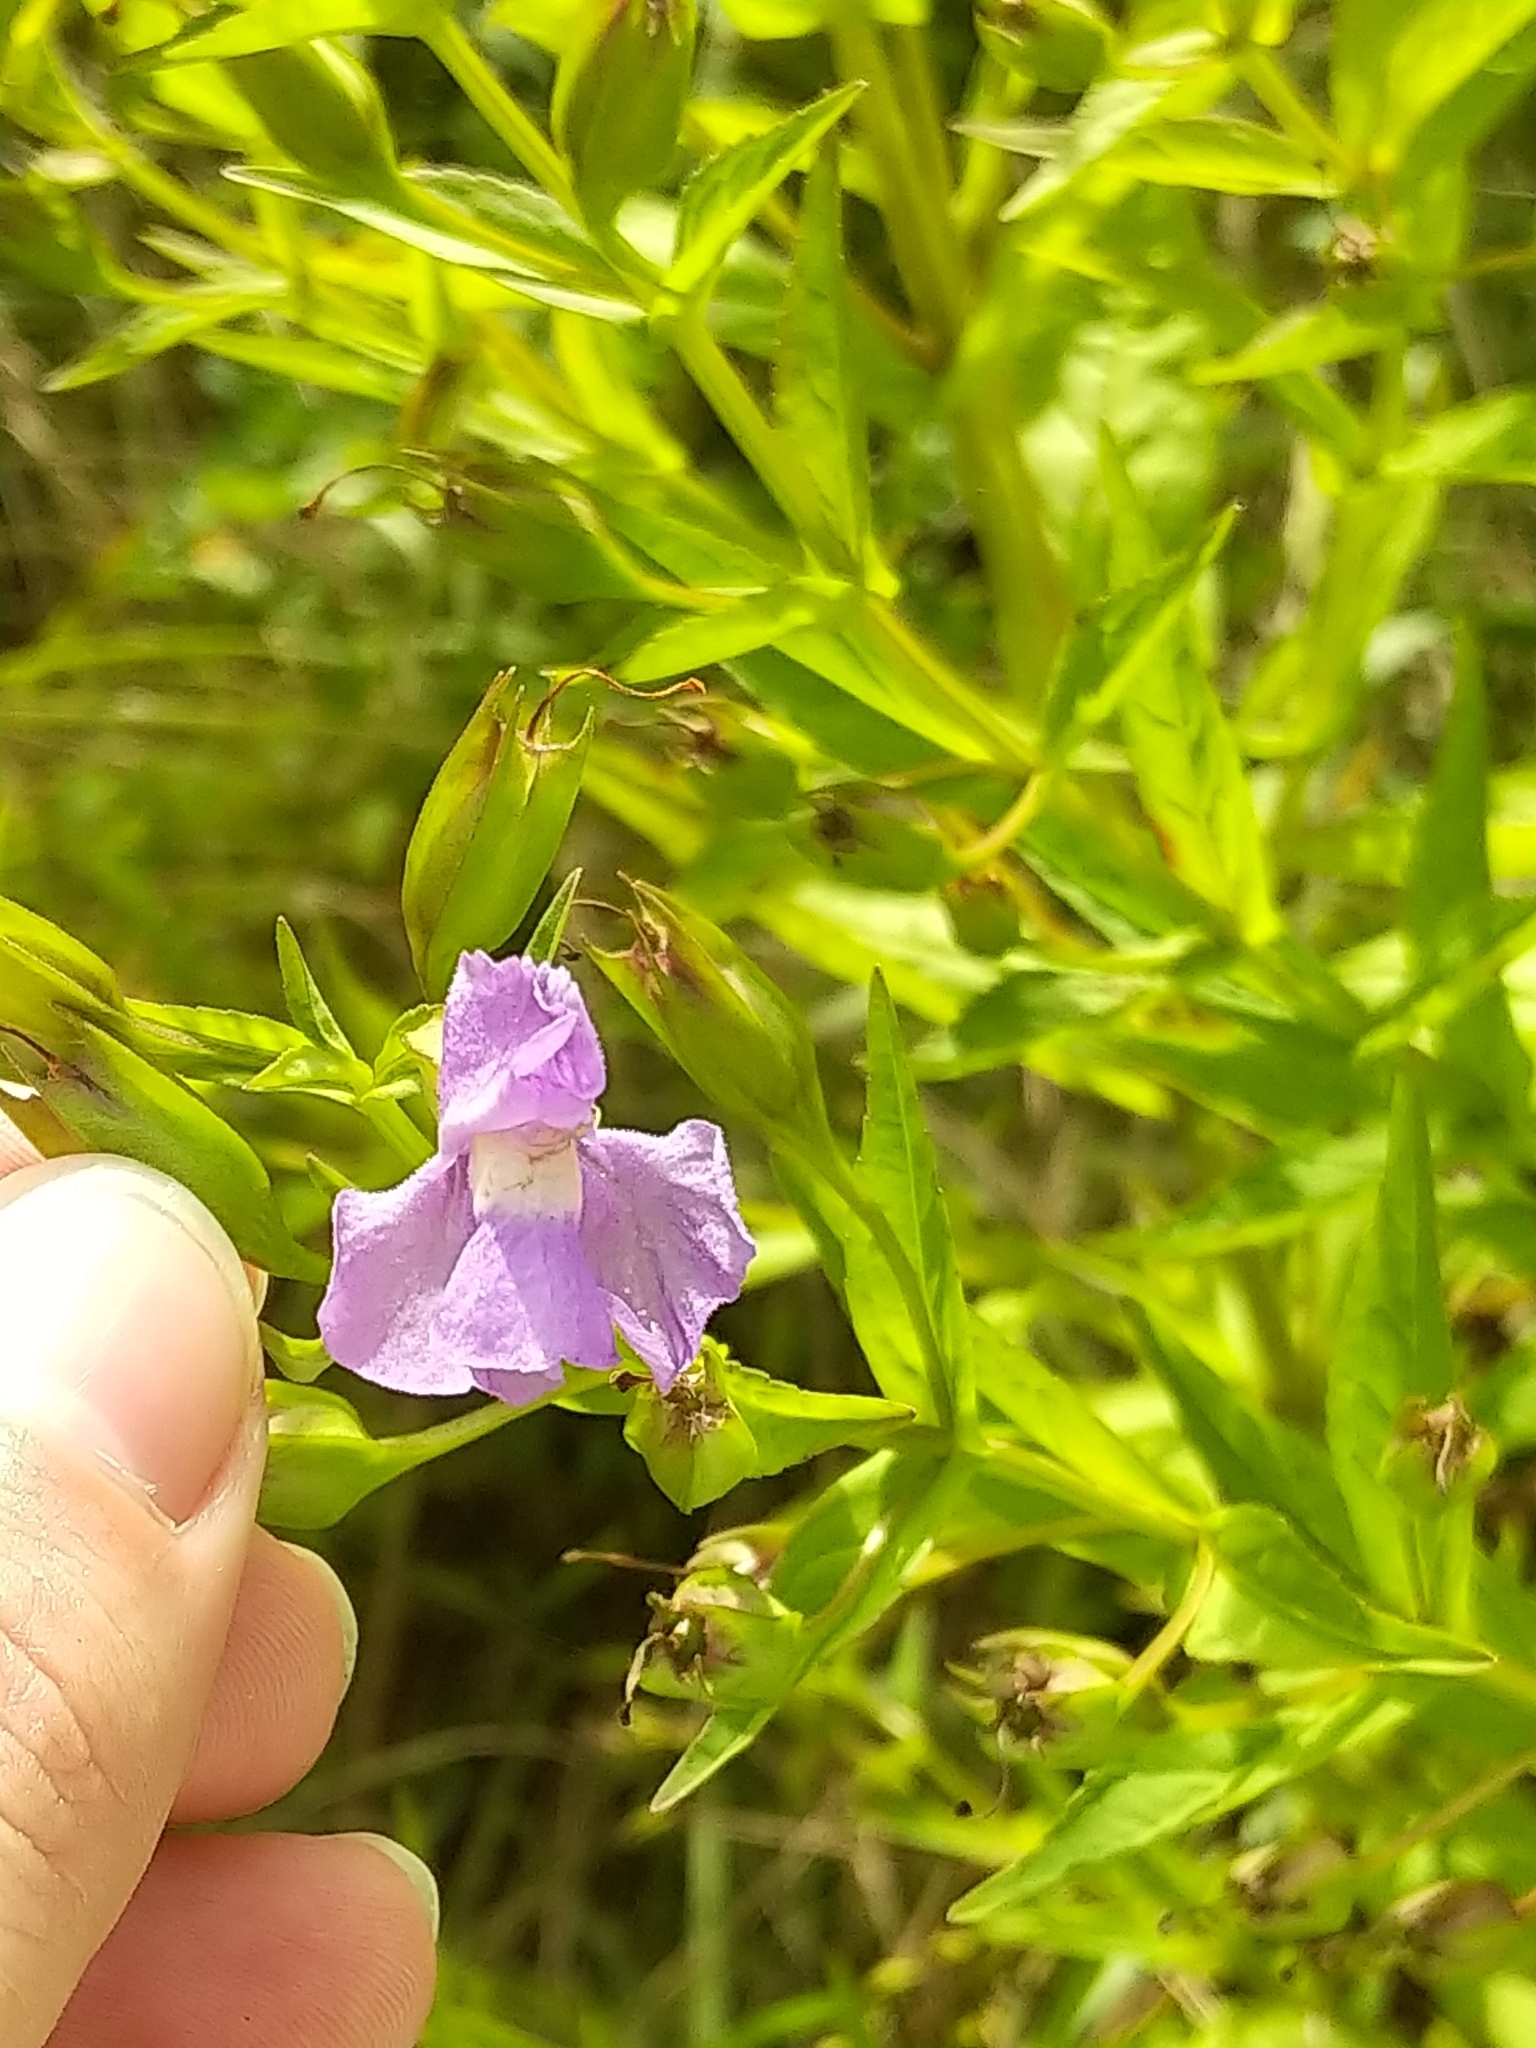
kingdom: Plantae
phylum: Tracheophyta
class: Magnoliopsida
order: Lamiales
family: Phrymaceae
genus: Mimulus
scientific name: Mimulus ringens
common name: Allegheny monkeyflower
